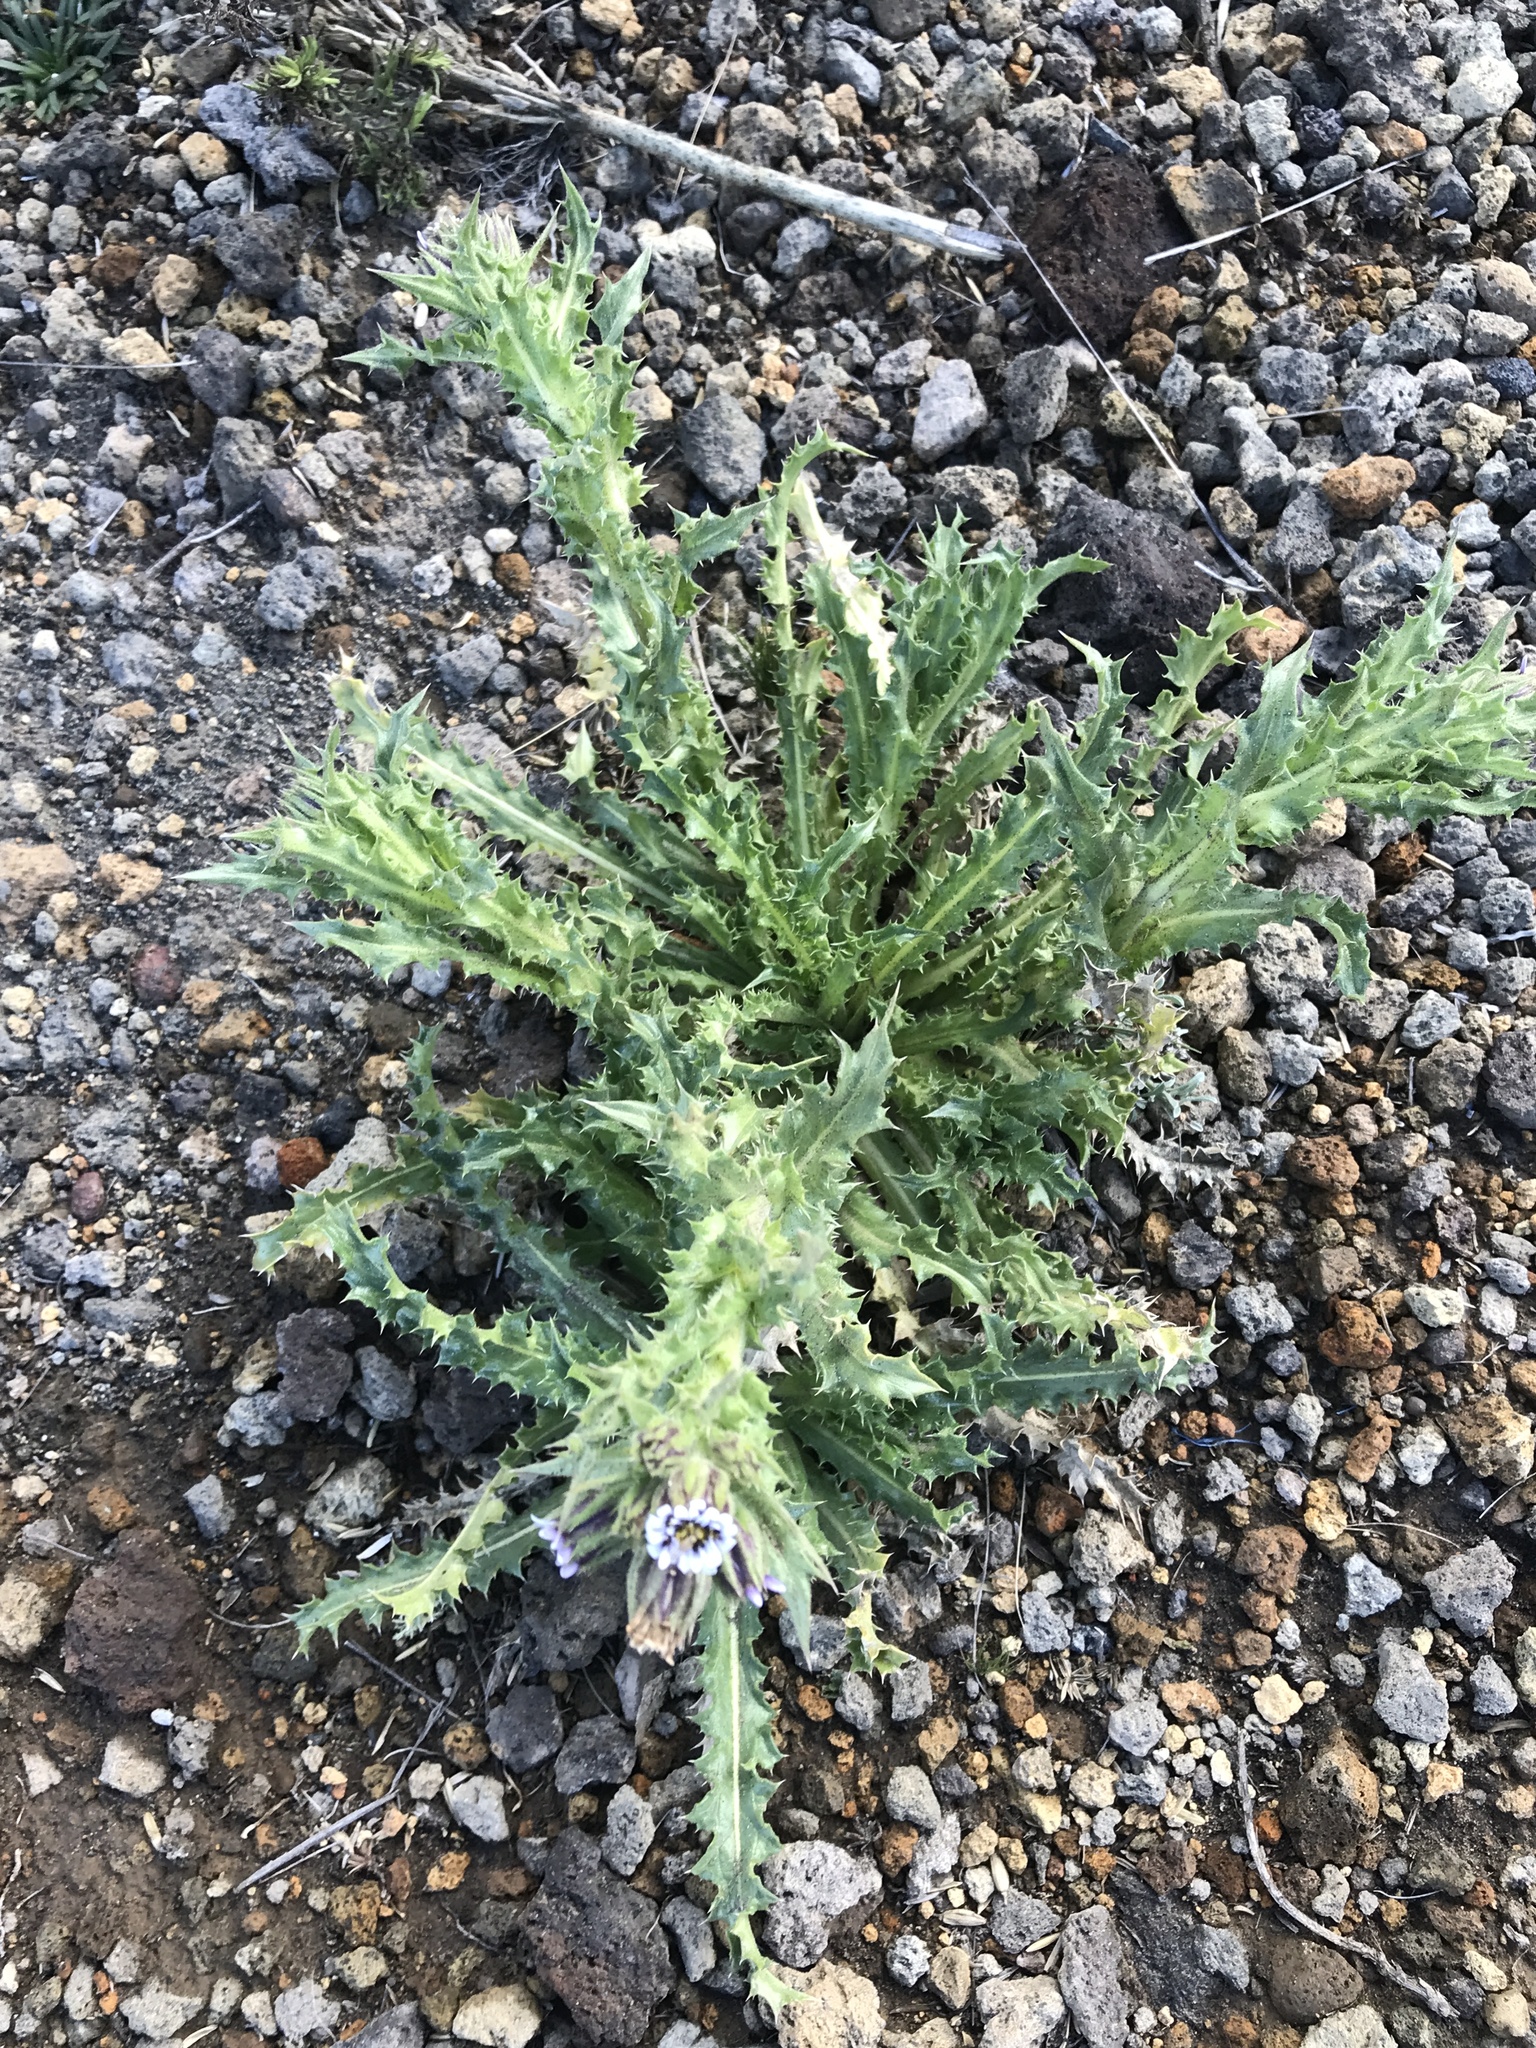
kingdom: Plantae
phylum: Tracheophyta
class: Magnoliopsida
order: Asterales
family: Asteraceae
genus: Perezia
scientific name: Perezia multiflora
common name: Perezia
